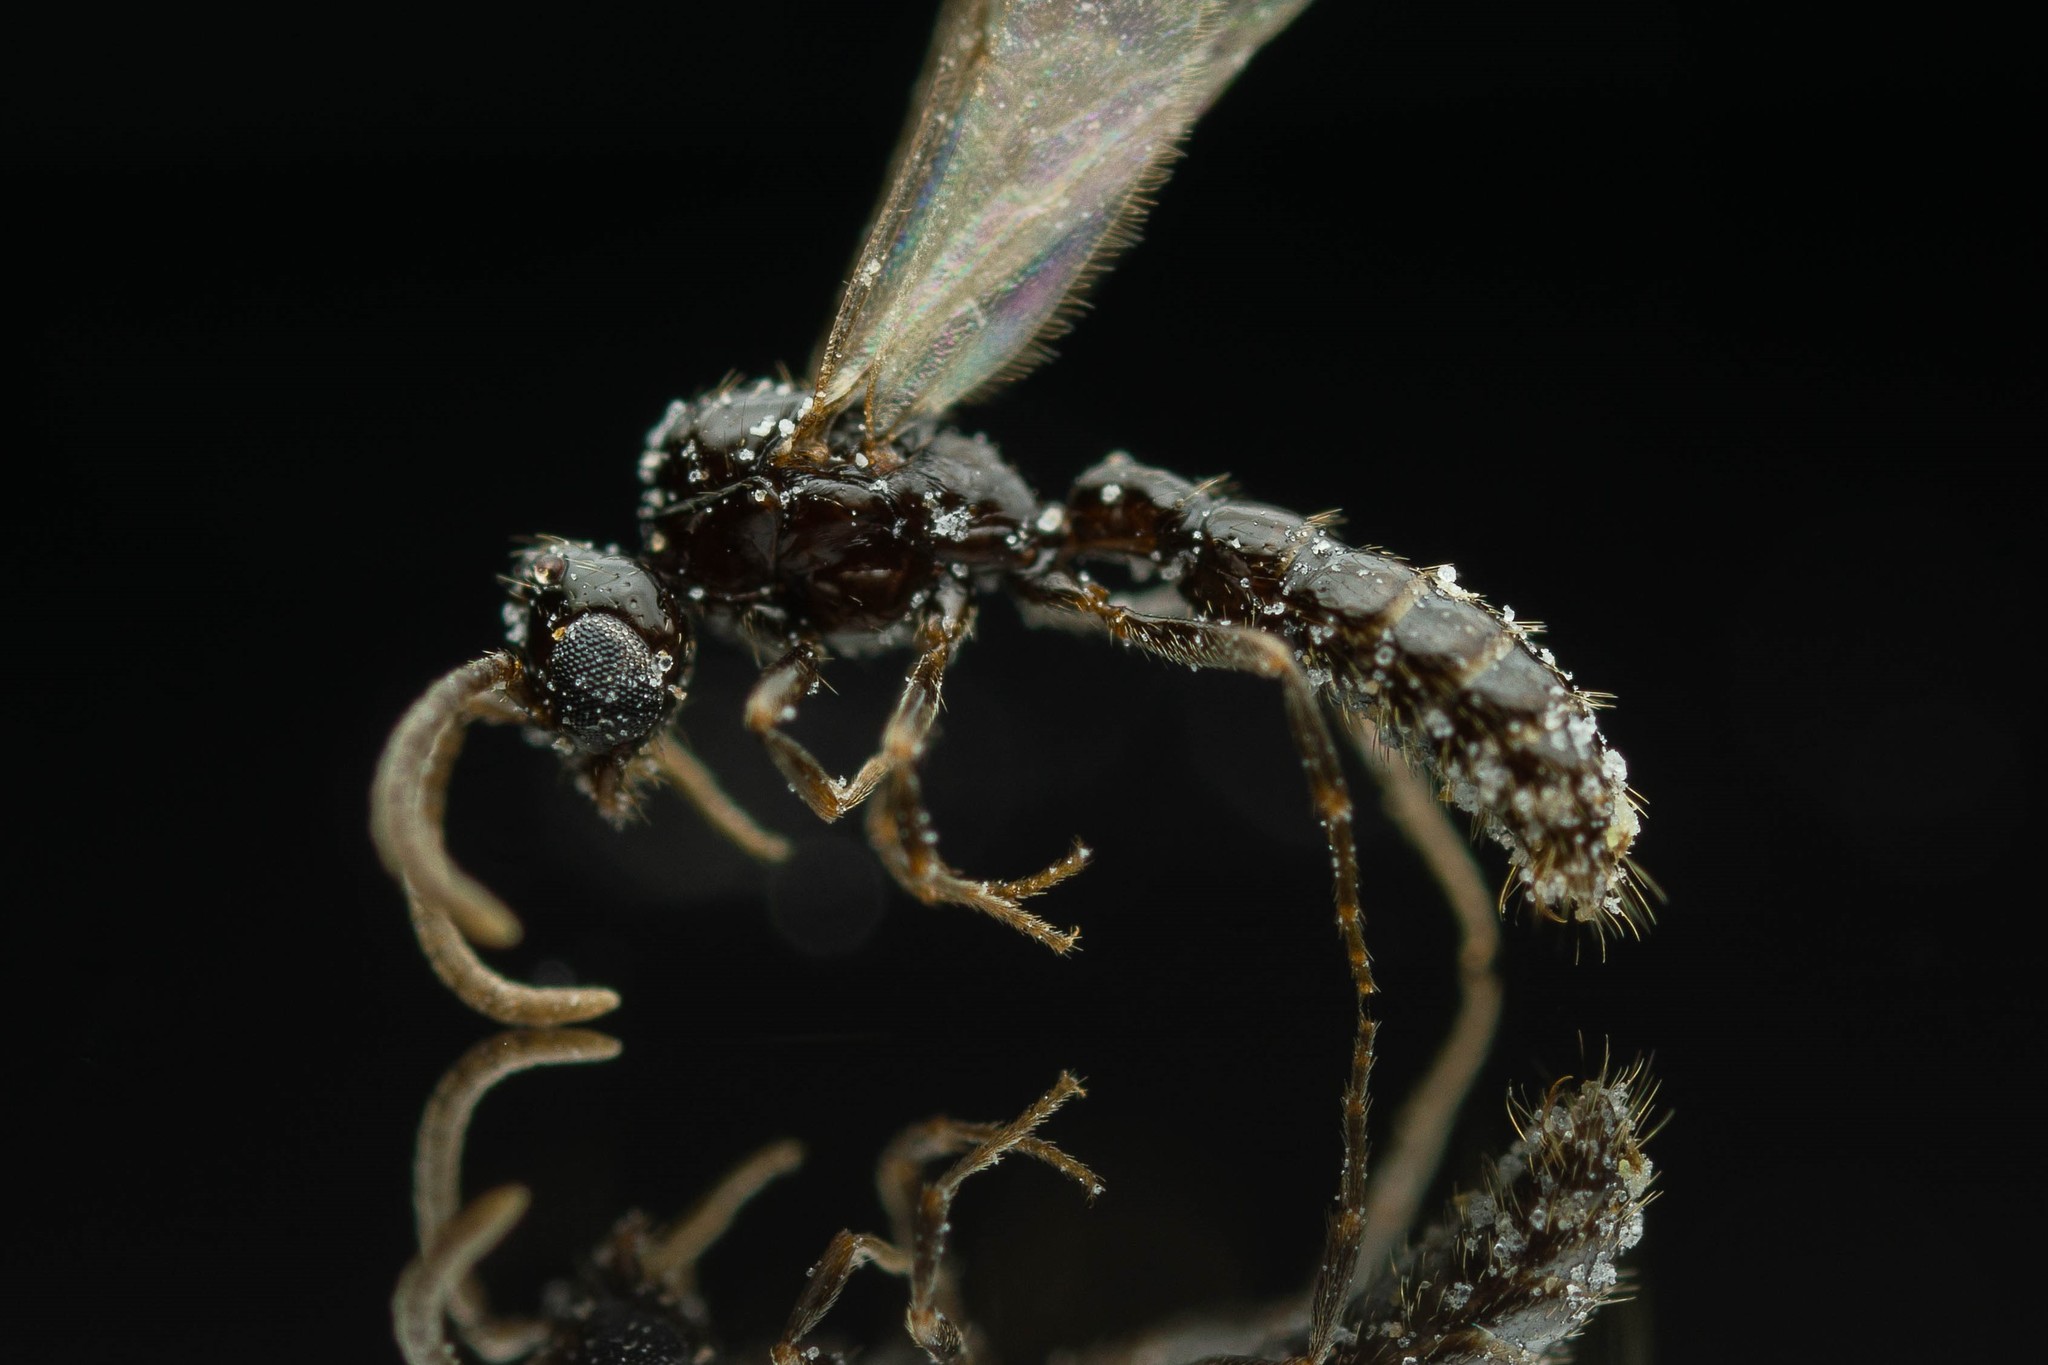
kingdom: Animalia
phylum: Arthropoda
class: Insecta
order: Hymenoptera
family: Formicidae
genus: Acanthostichus
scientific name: Acanthostichus
